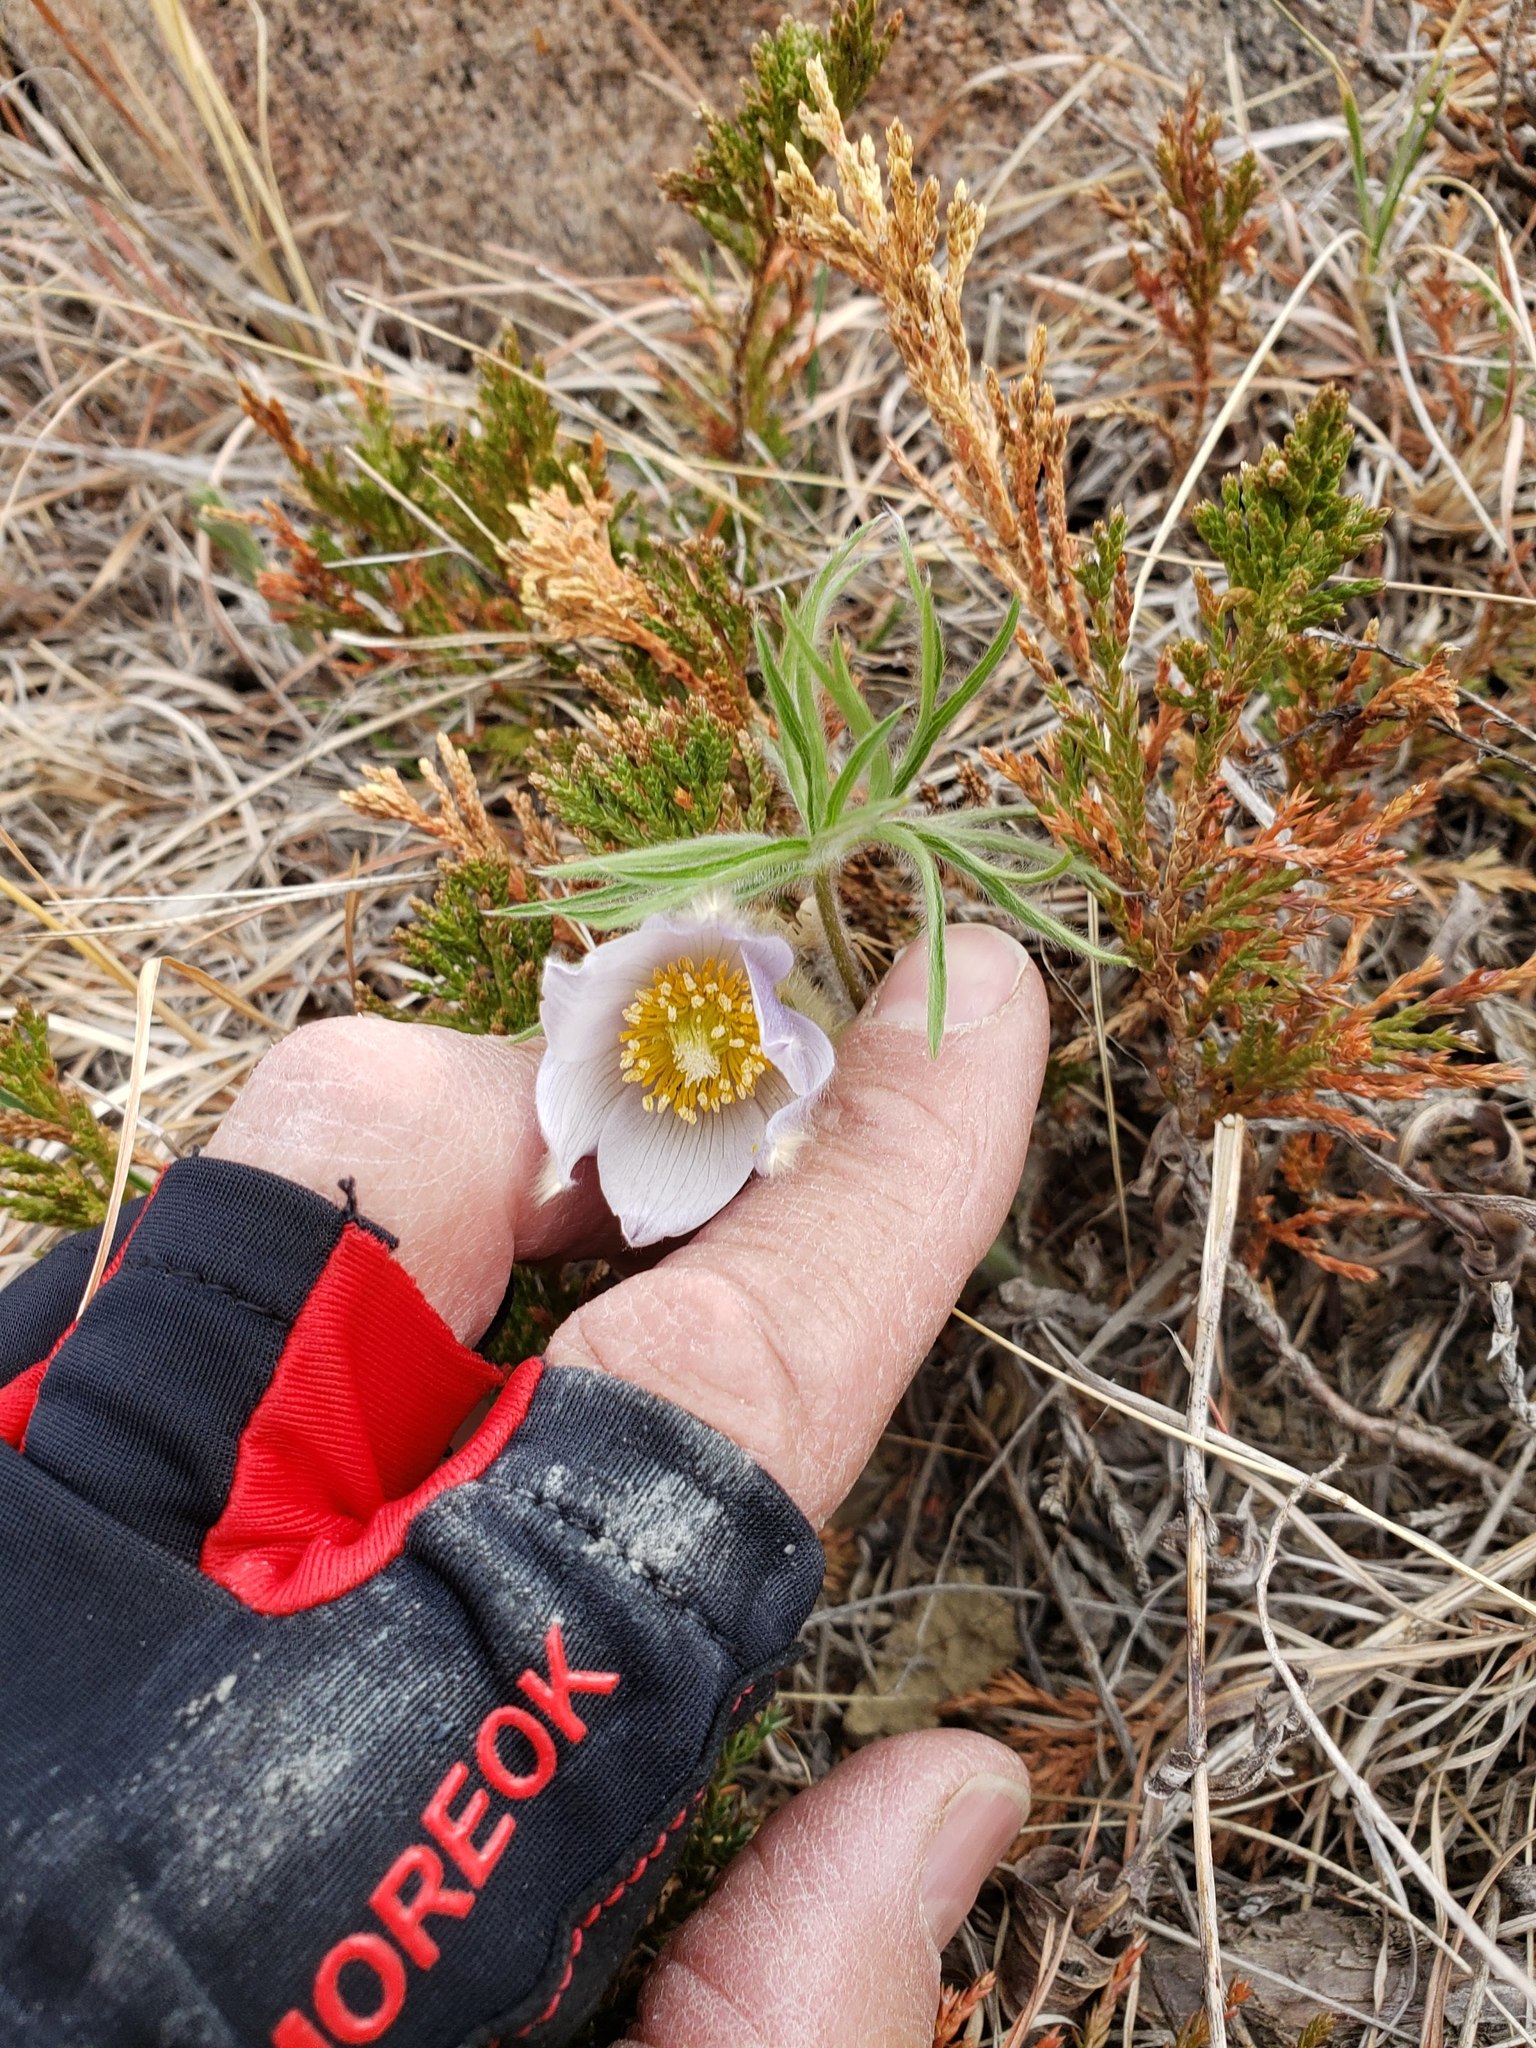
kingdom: Plantae
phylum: Tracheophyta
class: Magnoliopsida
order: Ranunculales
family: Ranunculaceae
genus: Pulsatilla
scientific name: Pulsatilla nuttalliana
